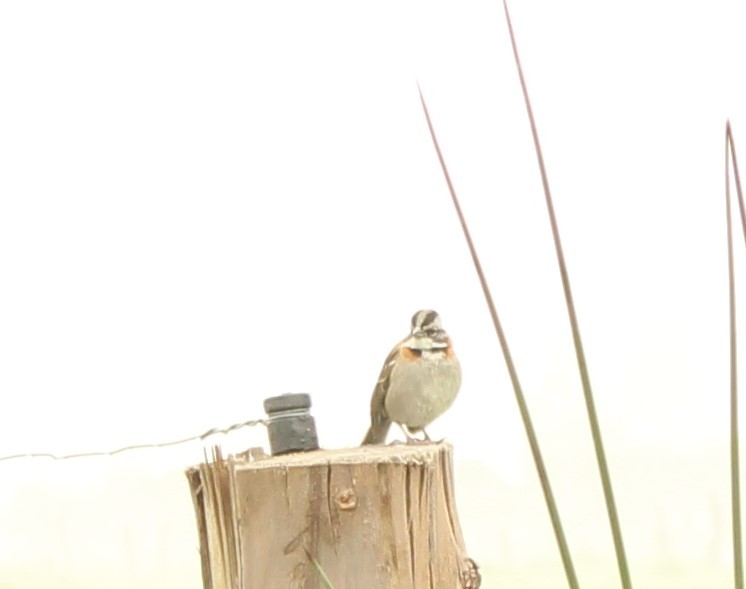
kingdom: Animalia
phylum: Chordata
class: Aves
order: Passeriformes
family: Passerellidae
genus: Zonotrichia
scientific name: Zonotrichia capensis
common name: Rufous-collared sparrow
